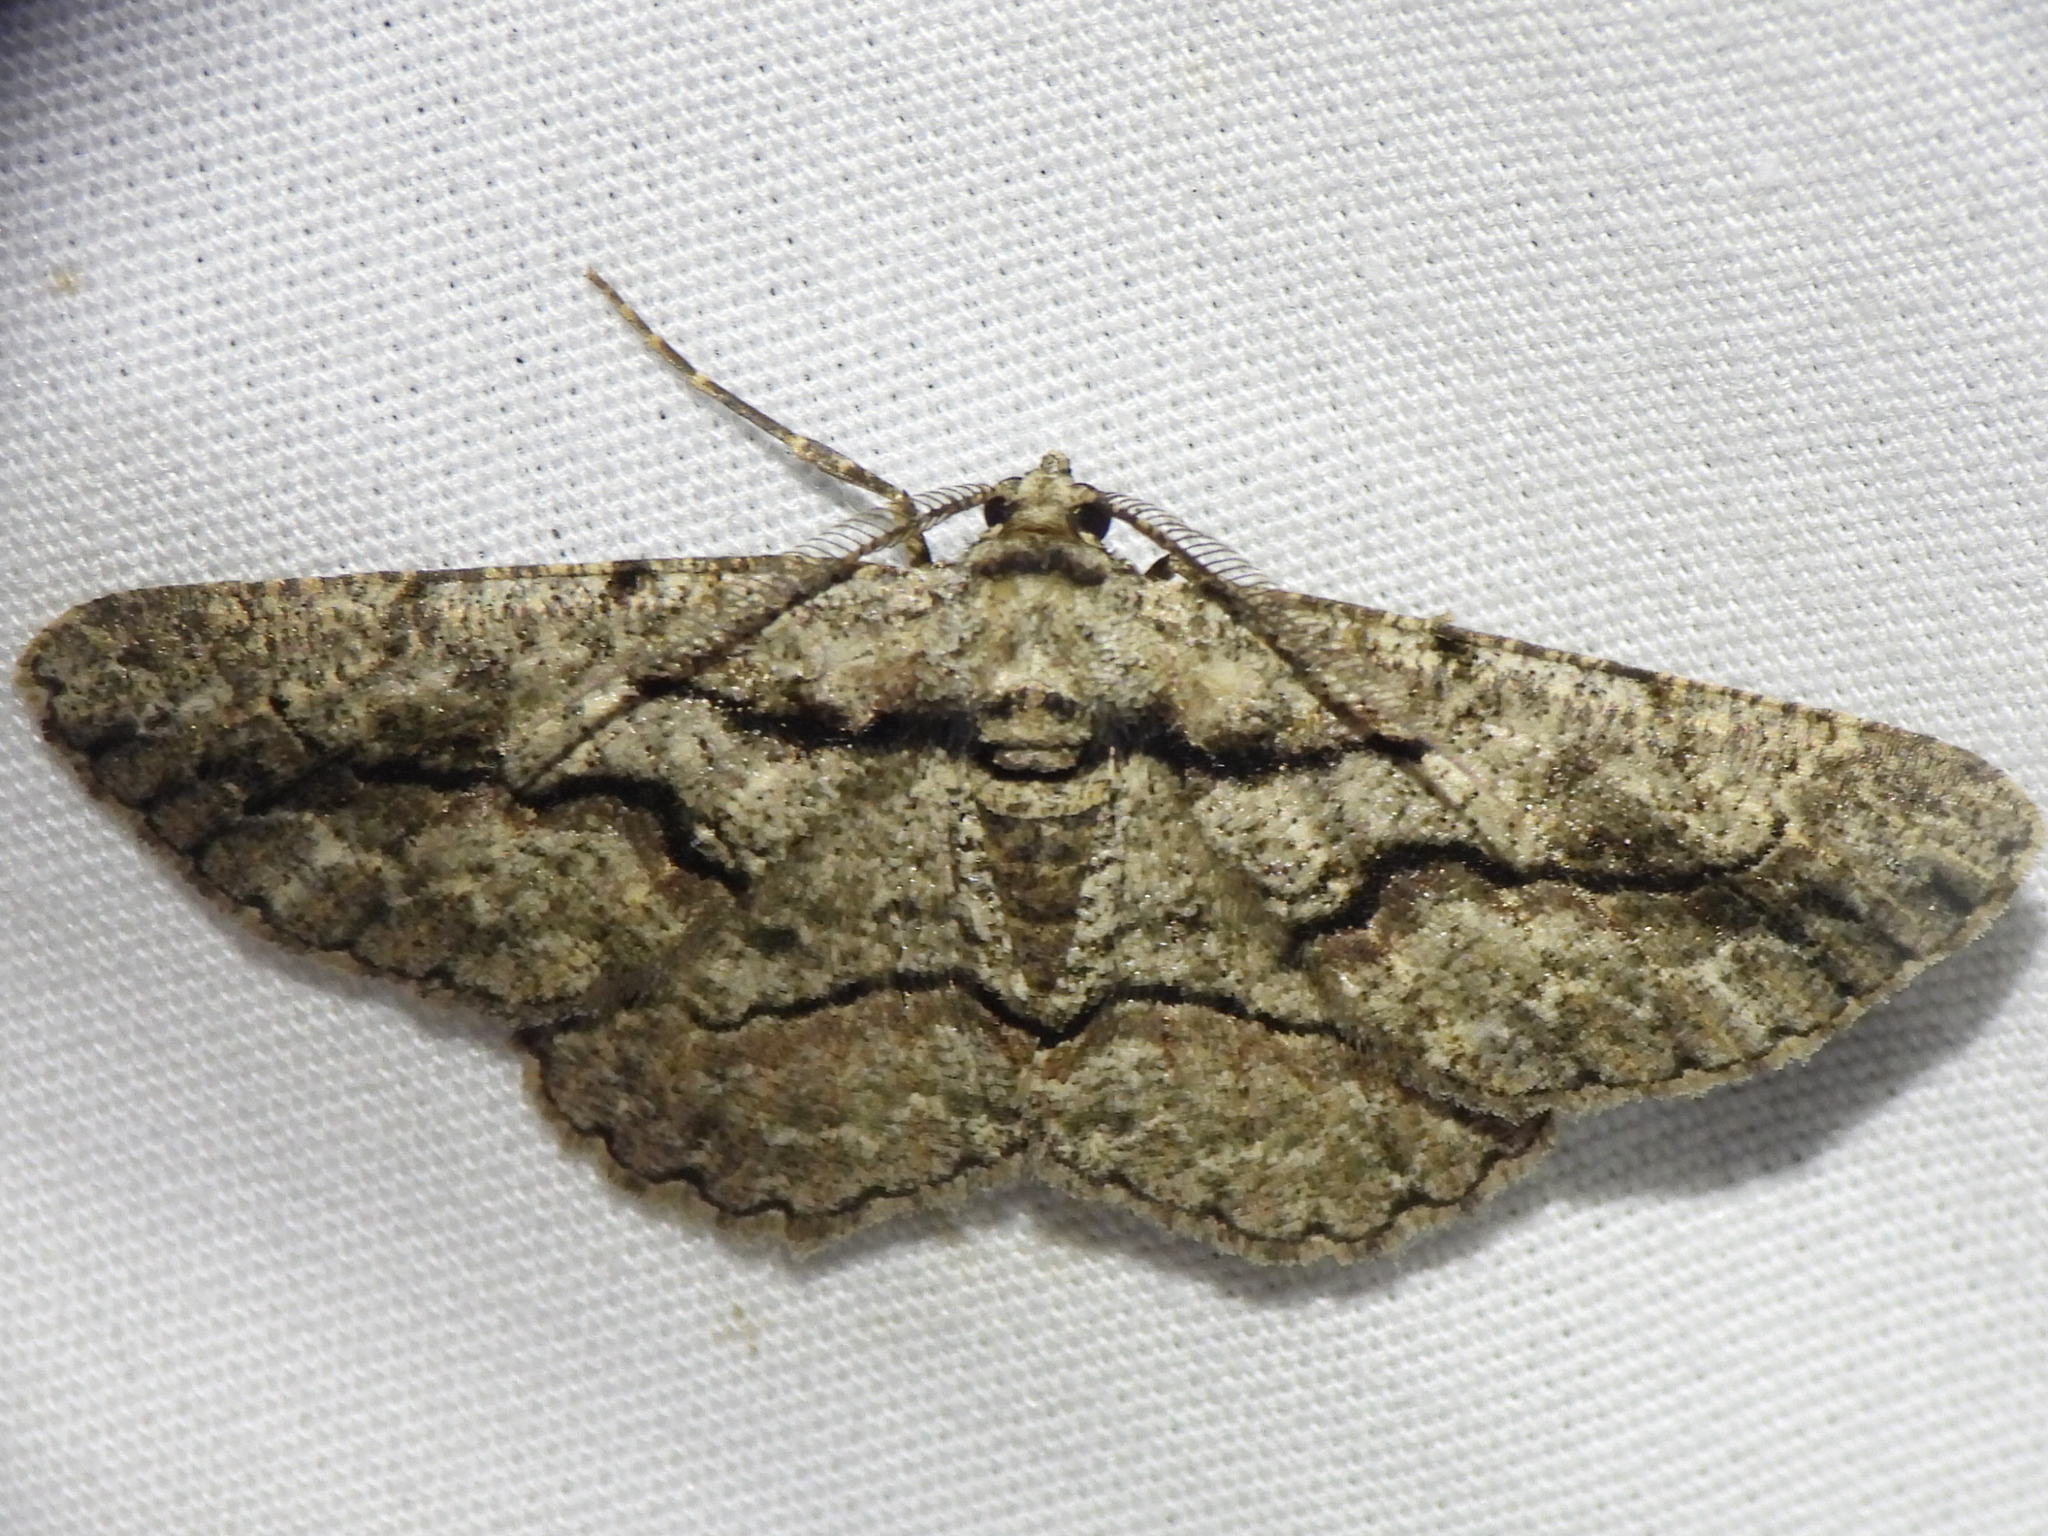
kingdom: Animalia
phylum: Arthropoda
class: Insecta
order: Lepidoptera
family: Geometridae
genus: Anavitrinella
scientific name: Anavitrinella atristrigaria
